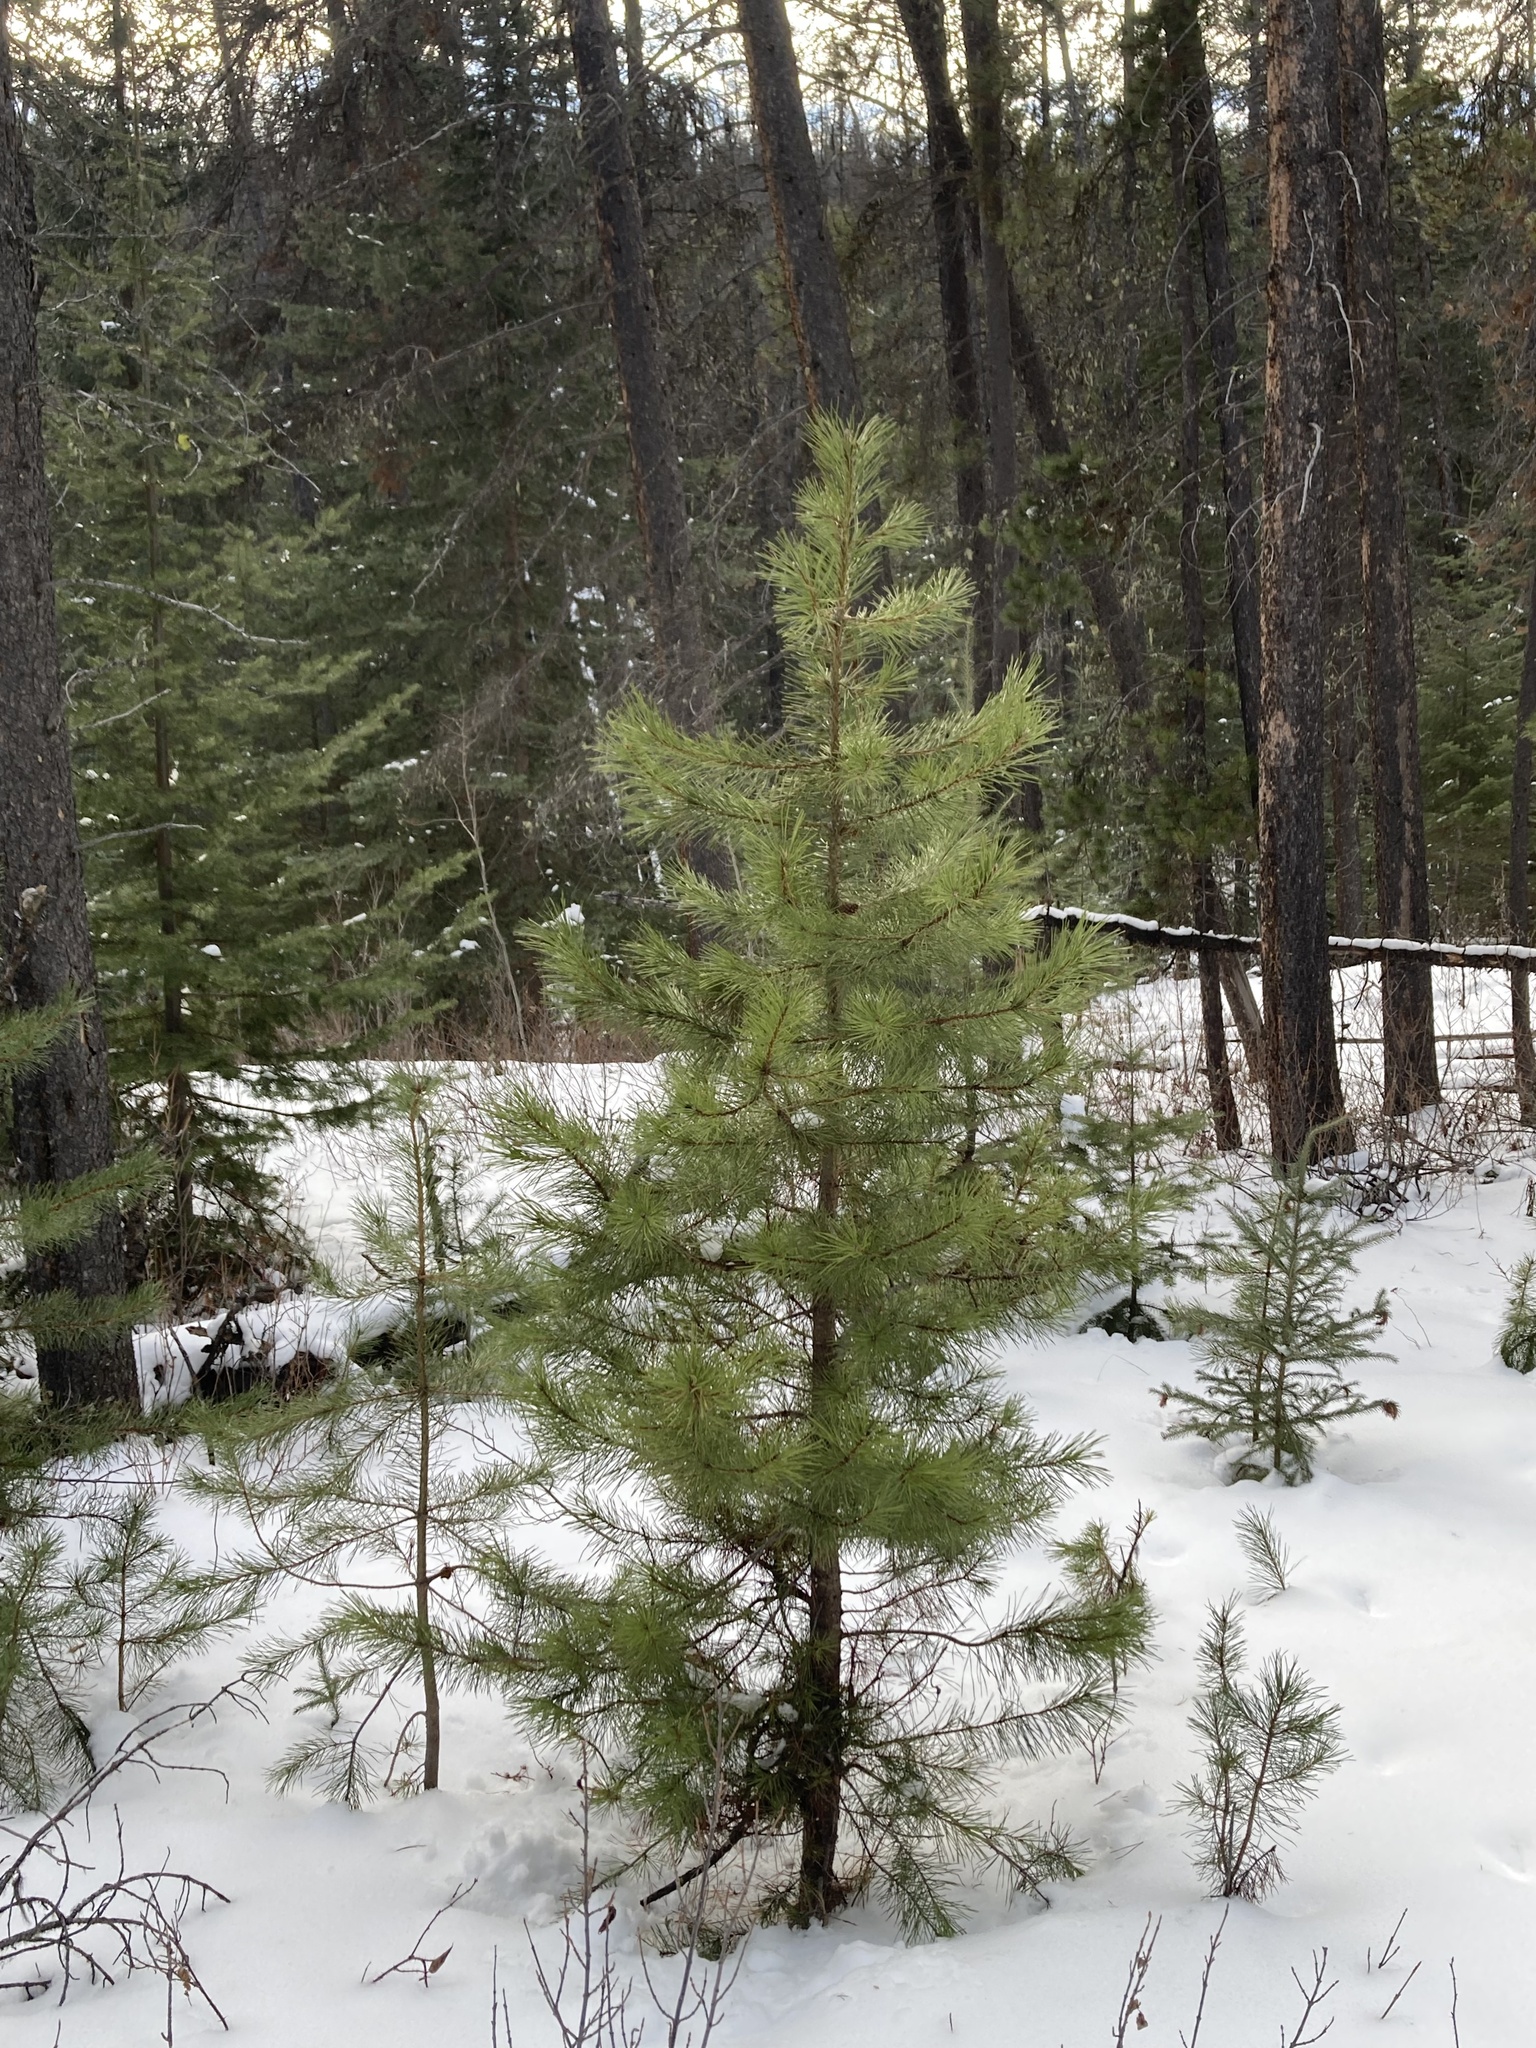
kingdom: Plantae
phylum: Tracheophyta
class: Pinopsida
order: Pinales
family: Pinaceae
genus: Pinus
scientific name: Pinus contorta
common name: Lodgepole pine
